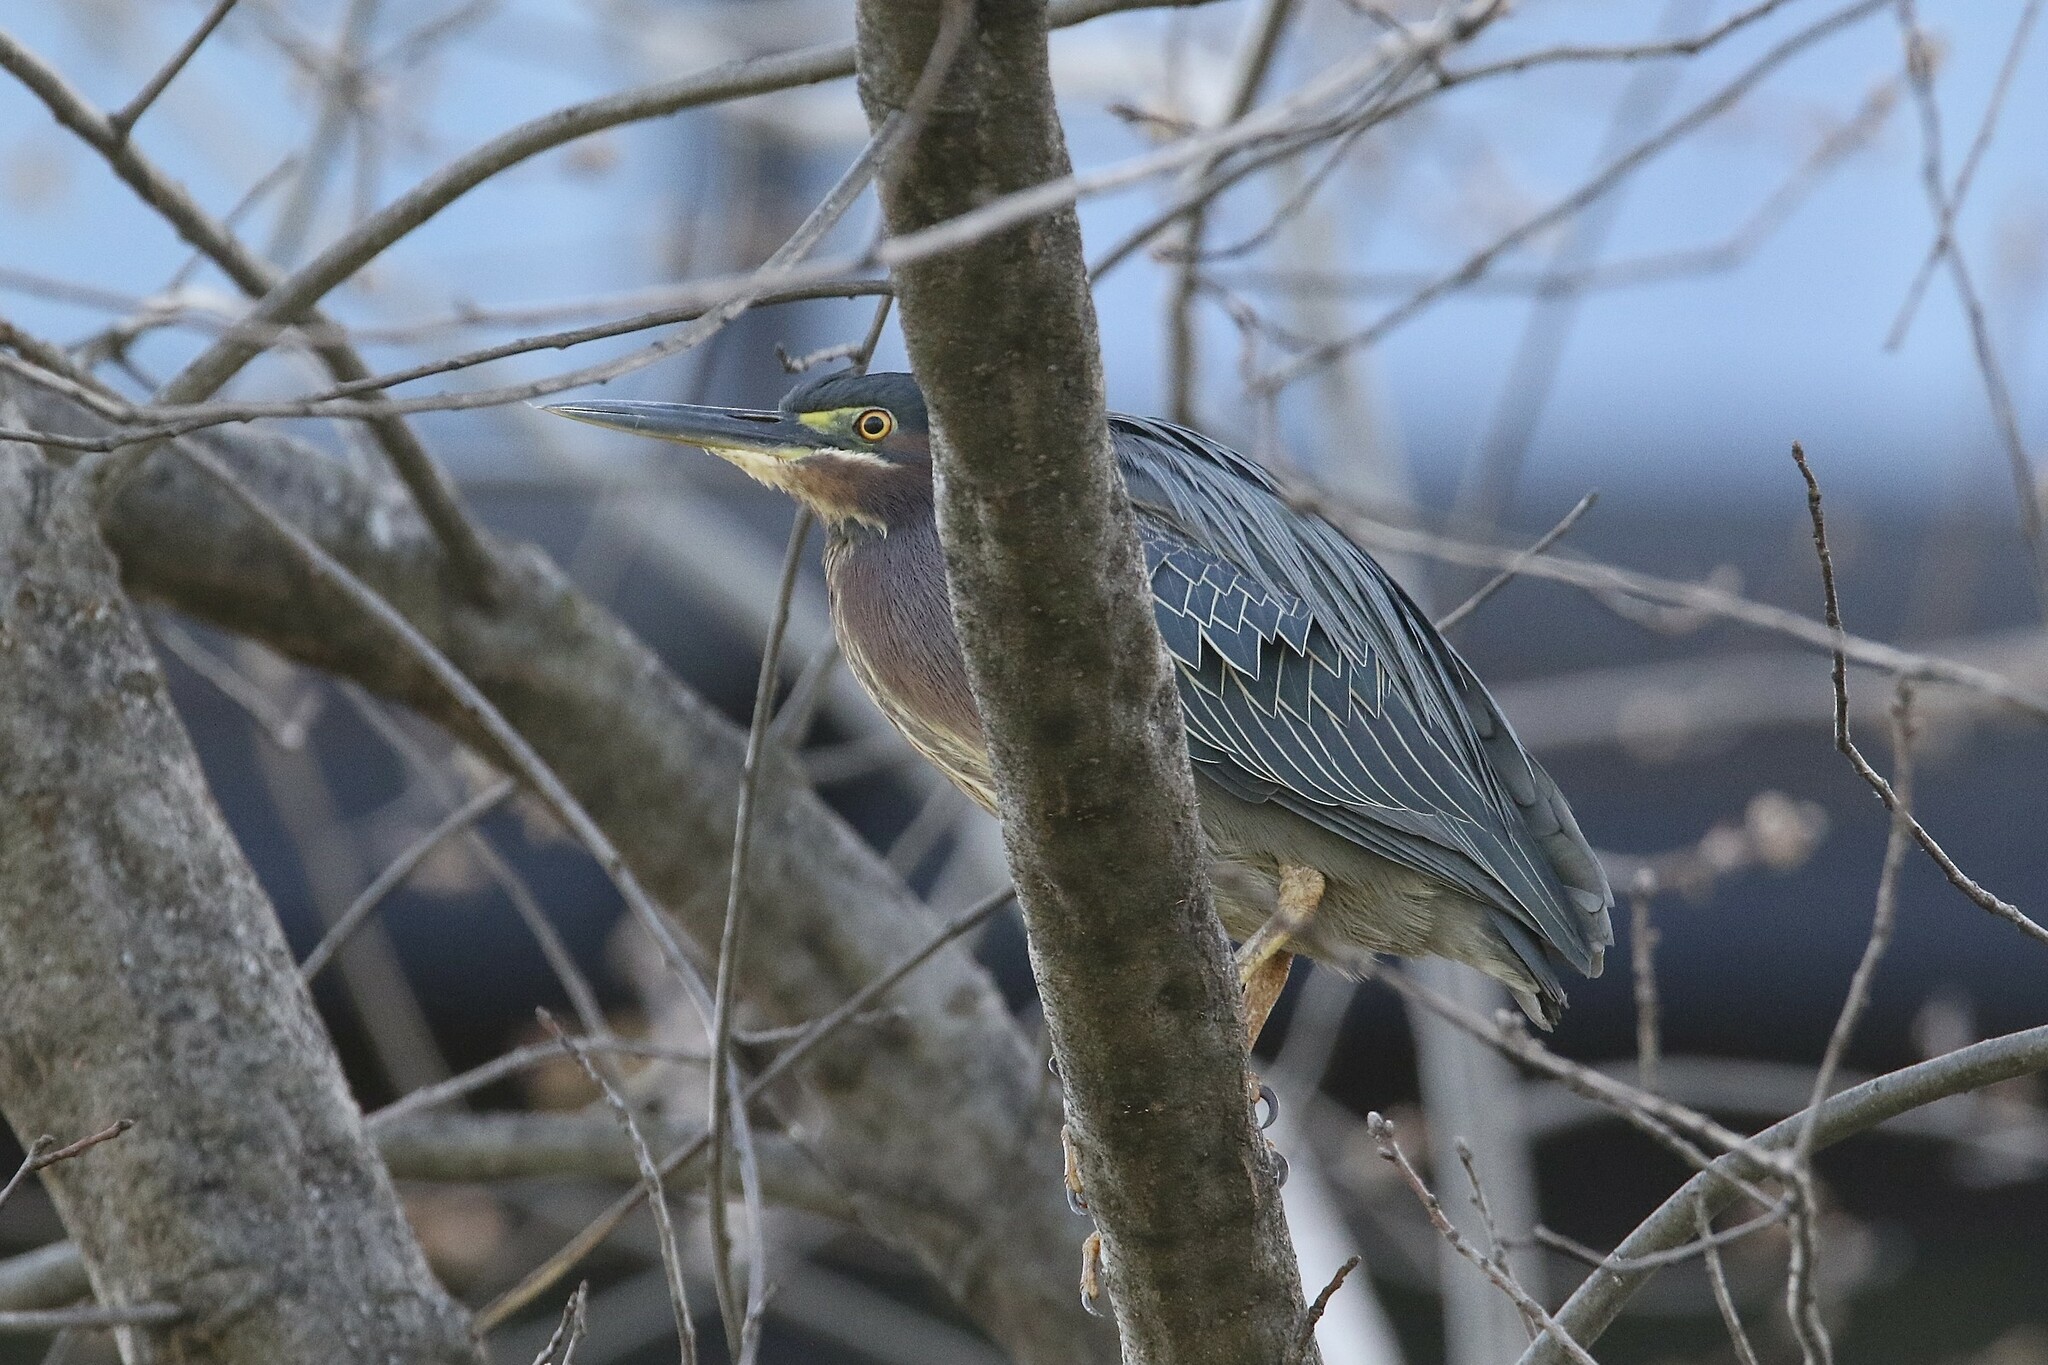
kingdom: Animalia
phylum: Chordata
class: Aves
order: Pelecaniformes
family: Ardeidae
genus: Butorides
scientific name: Butorides virescens
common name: Green heron
